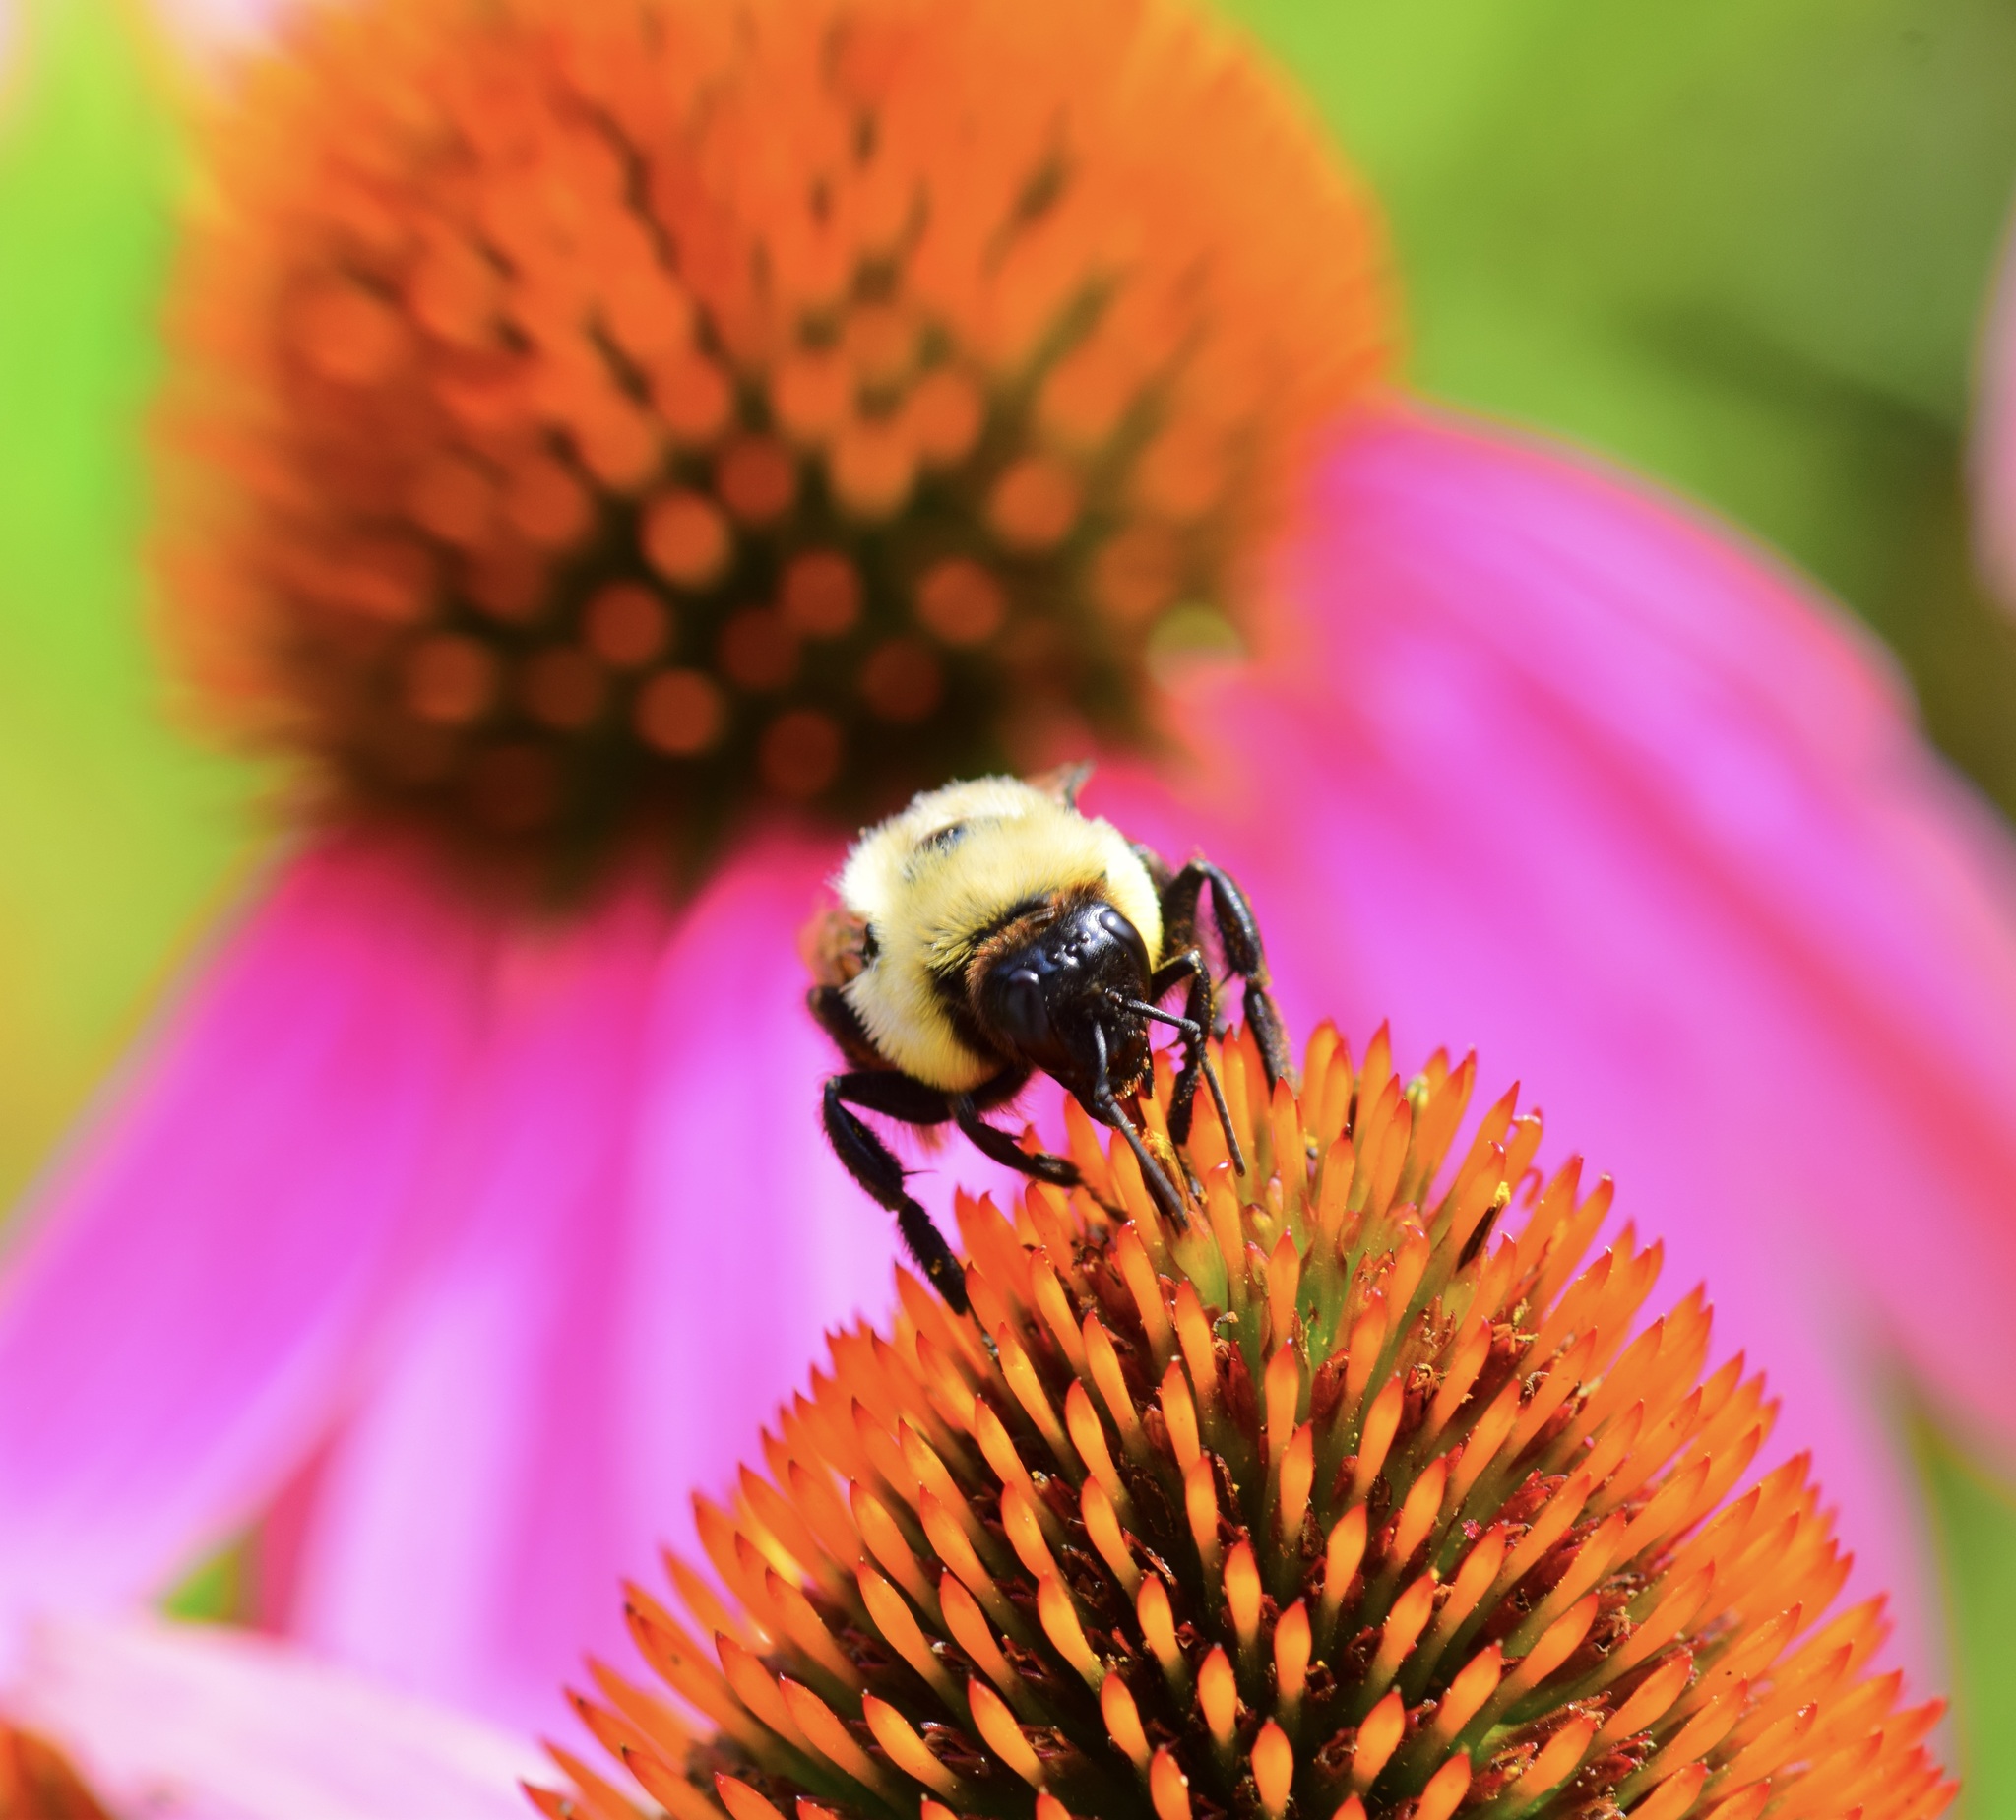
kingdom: Animalia
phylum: Arthropoda
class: Insecta
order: Hymenoptera
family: Apidae
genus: Bombus
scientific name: Bombus griseocollis
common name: Brown-belted bumble bee
